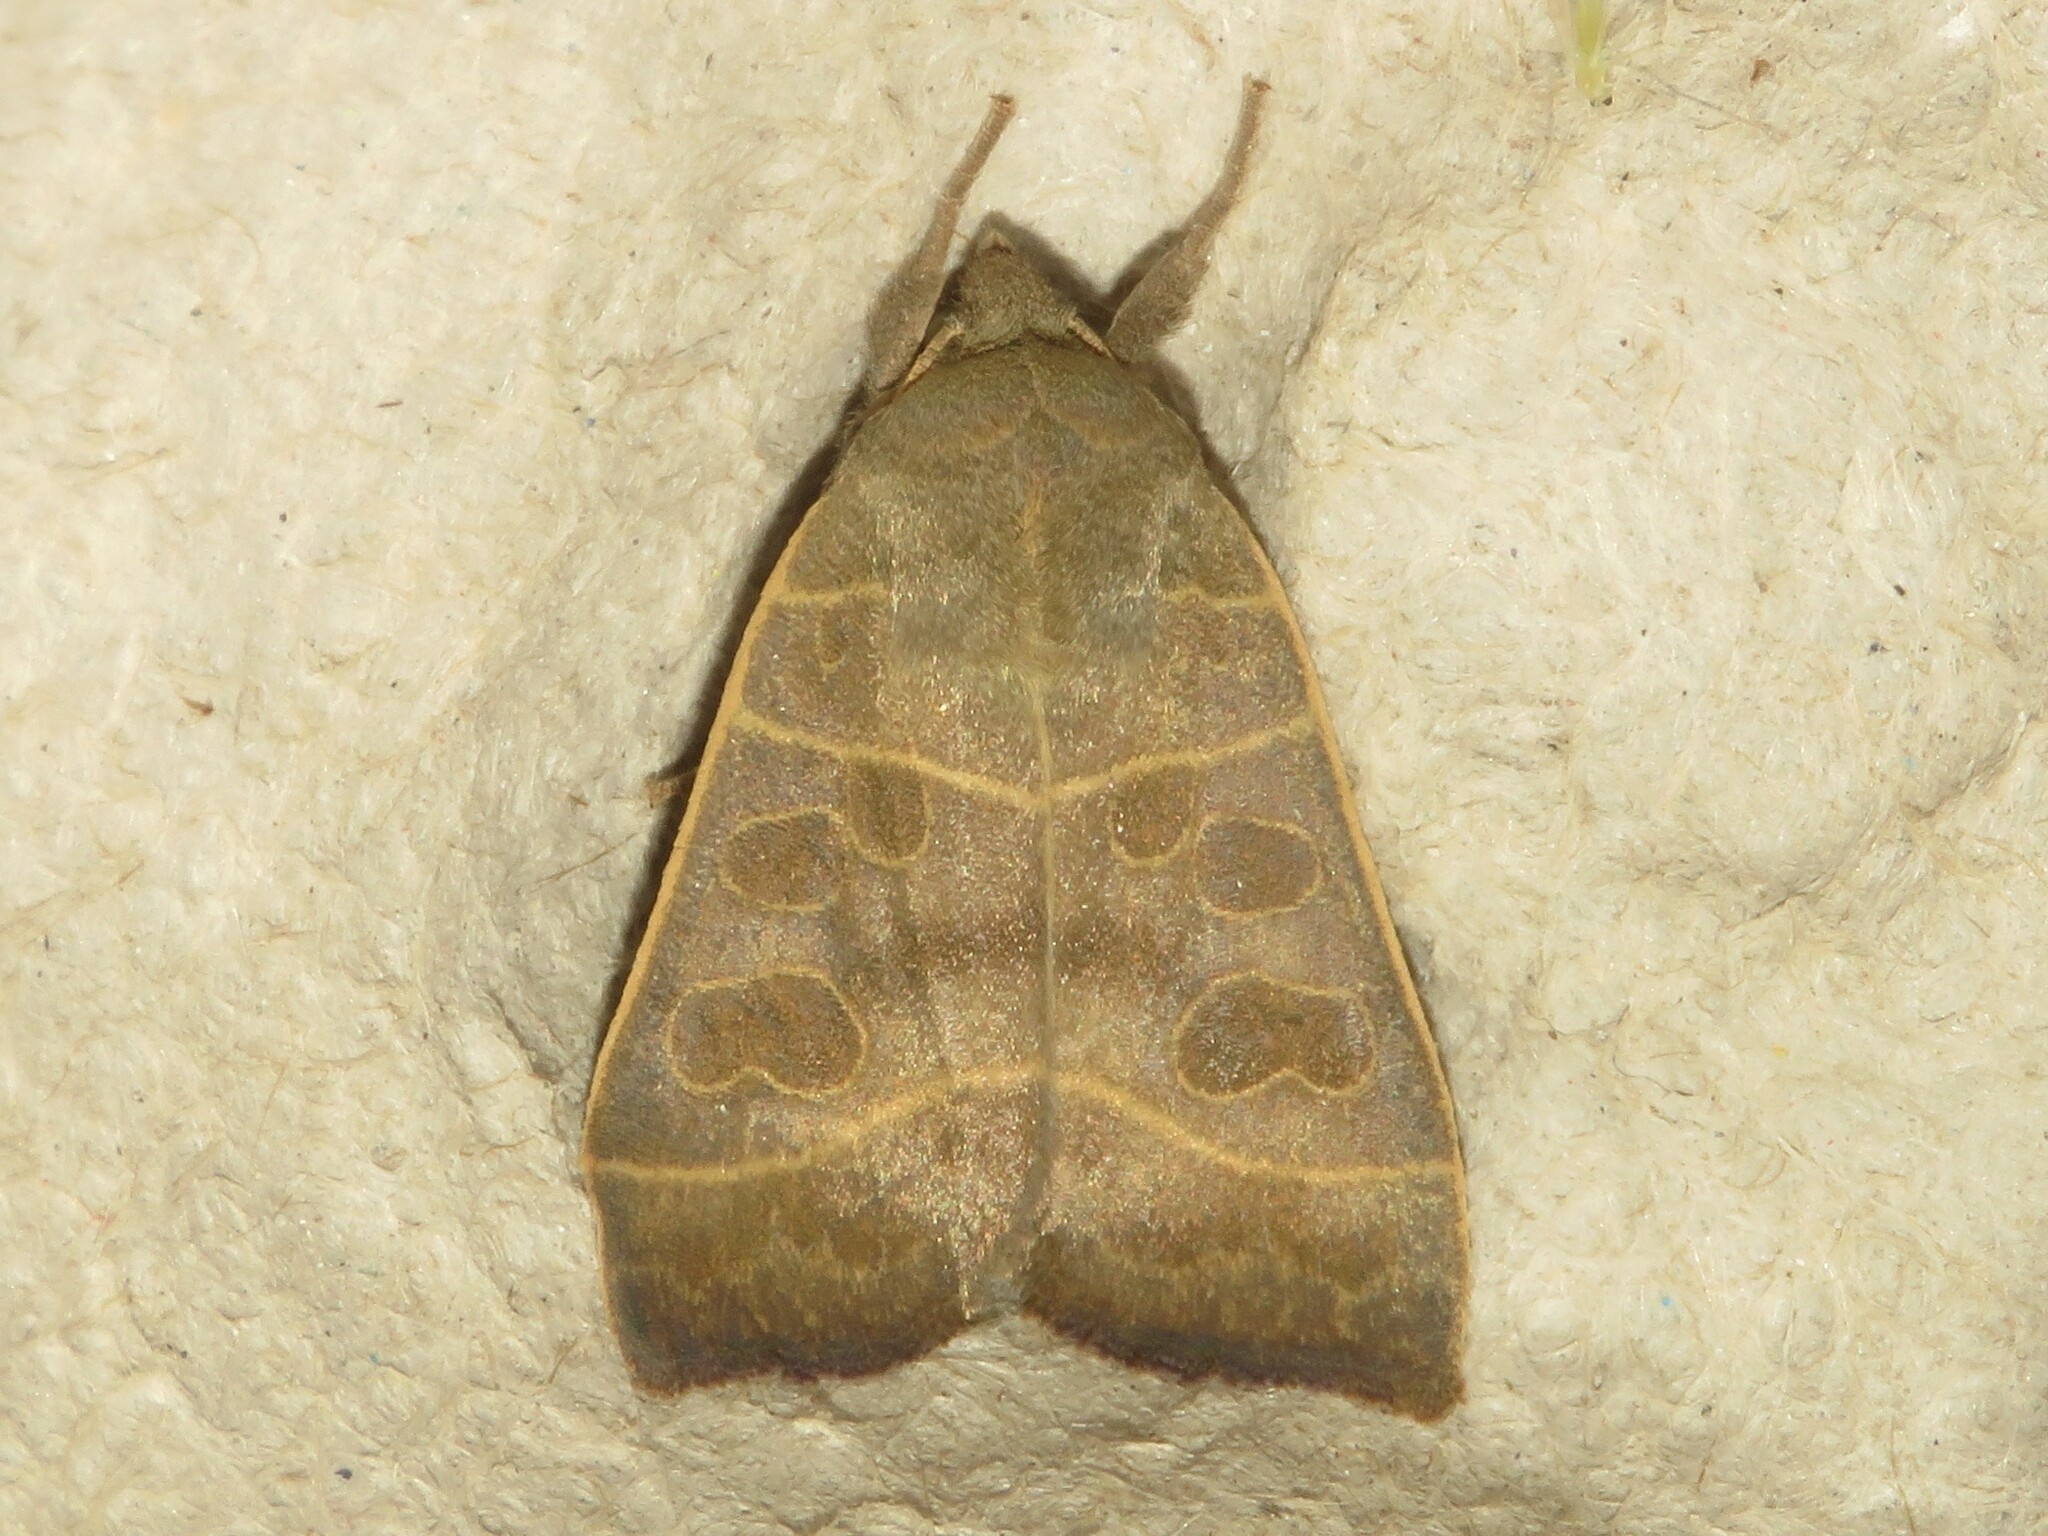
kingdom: Animalia
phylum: Arthropoda
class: Insecta
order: Lepidoptera
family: Noctuidae
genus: Ipimorpha
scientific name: Ipimorpha pleonectusa
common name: Even-lined sallow
